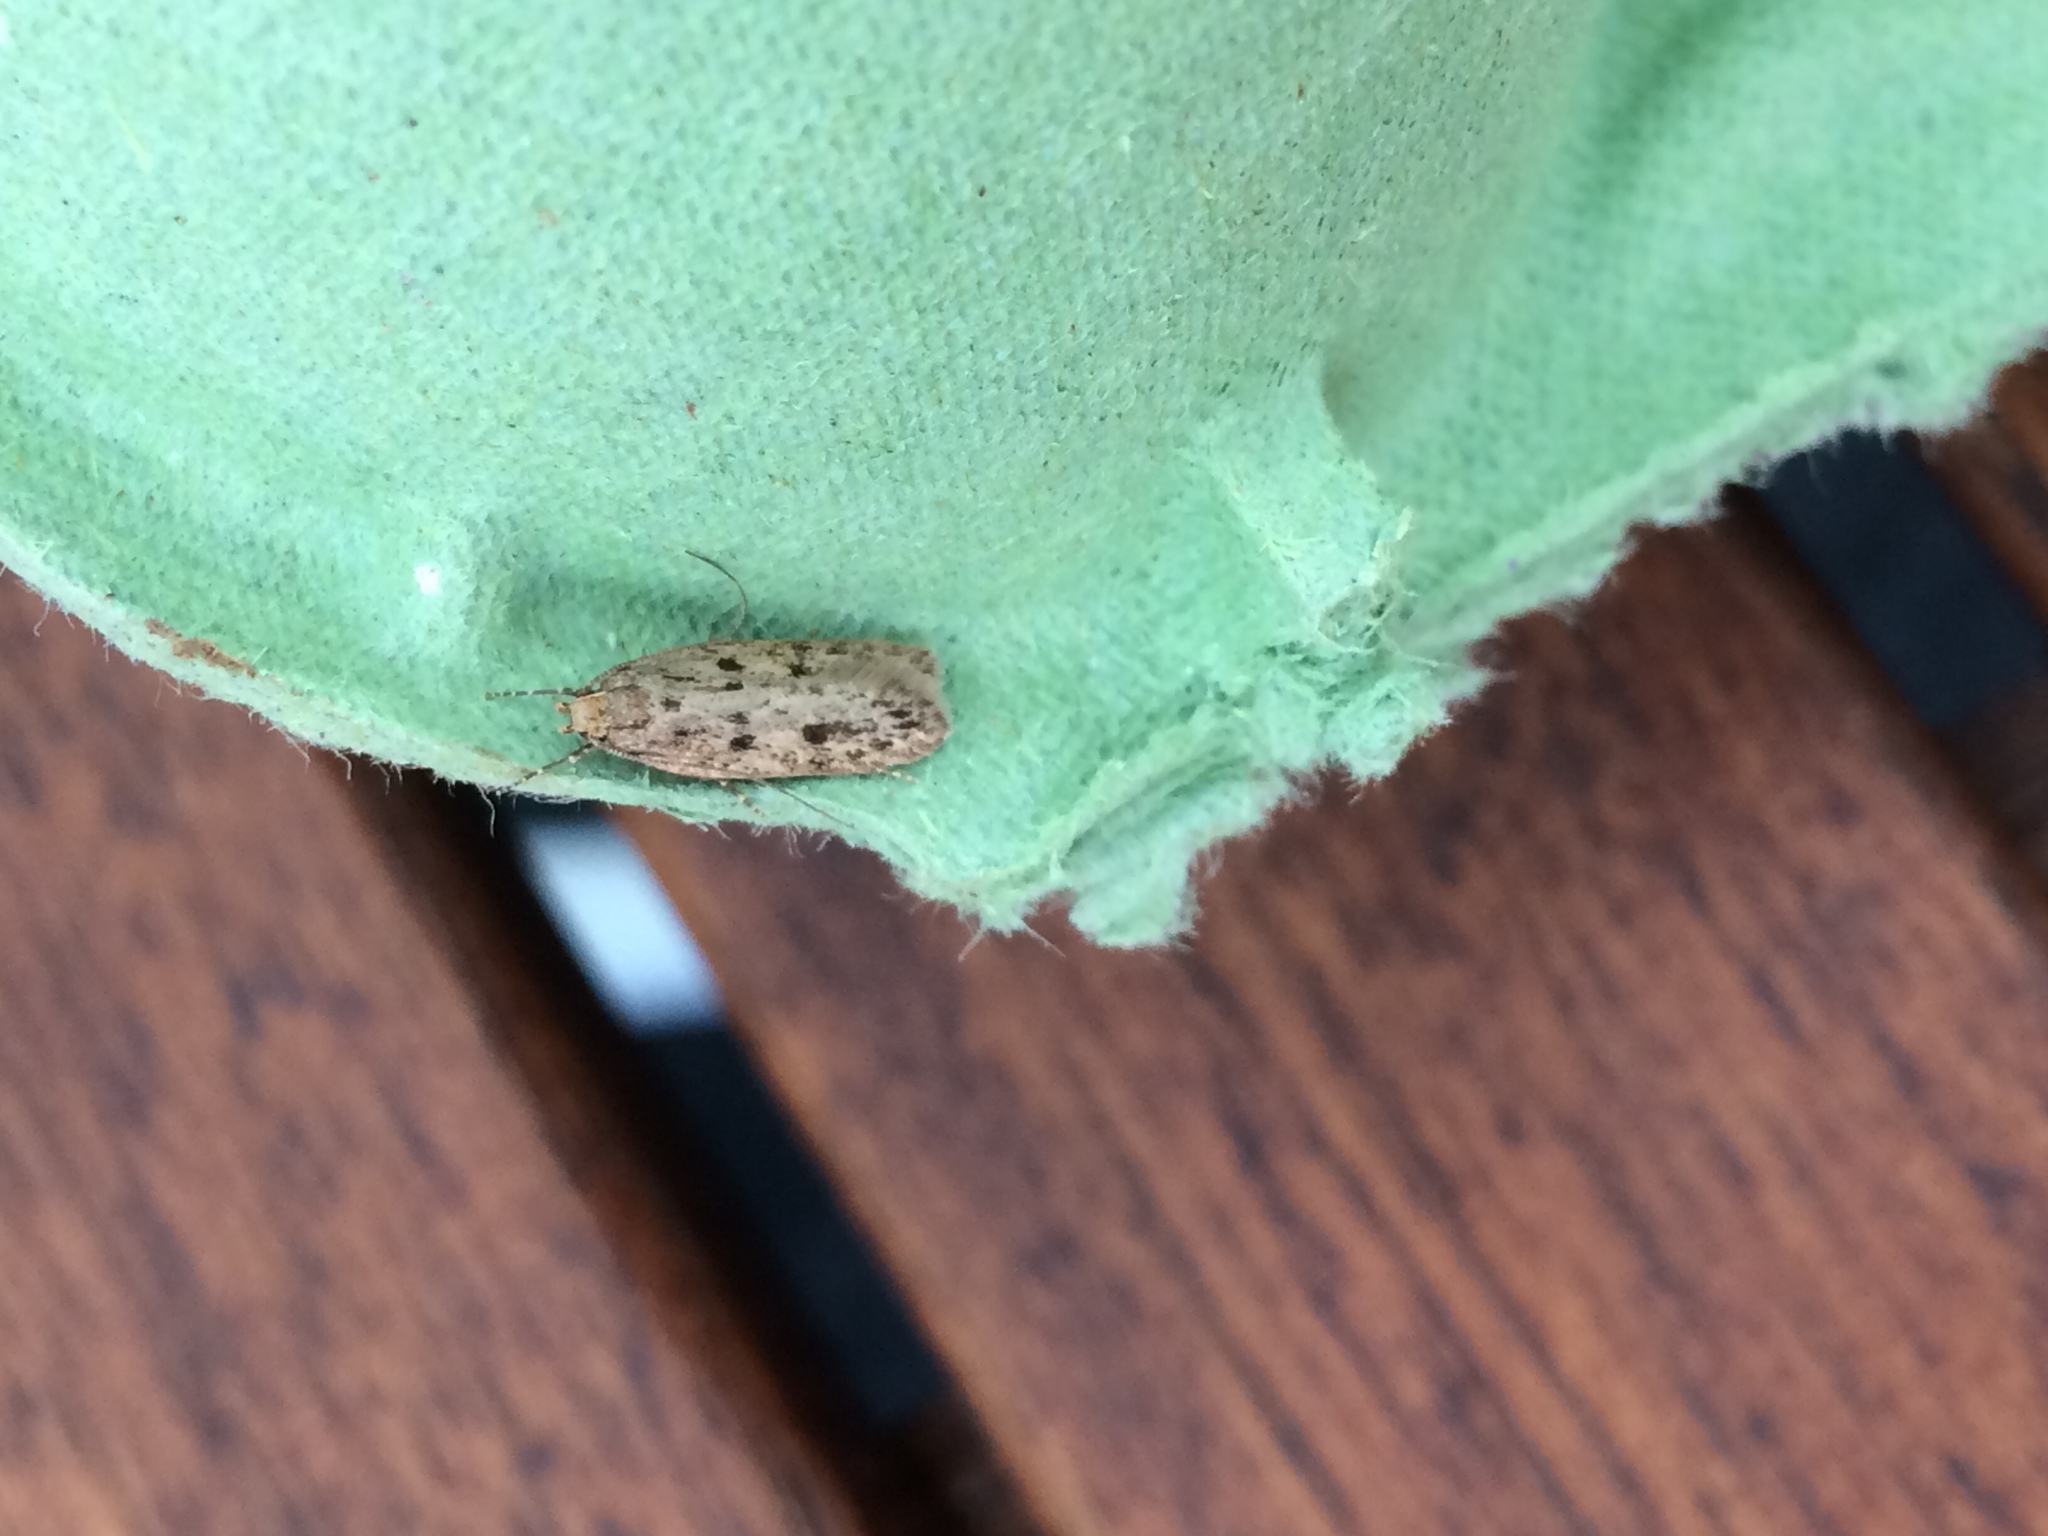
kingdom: Animalia
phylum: Arthropoda
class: Insecta
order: Lepidoptera
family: Oecophoridae
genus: Hofmannophila
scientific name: Hofmannophila pseudospretella
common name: Brown house moth
